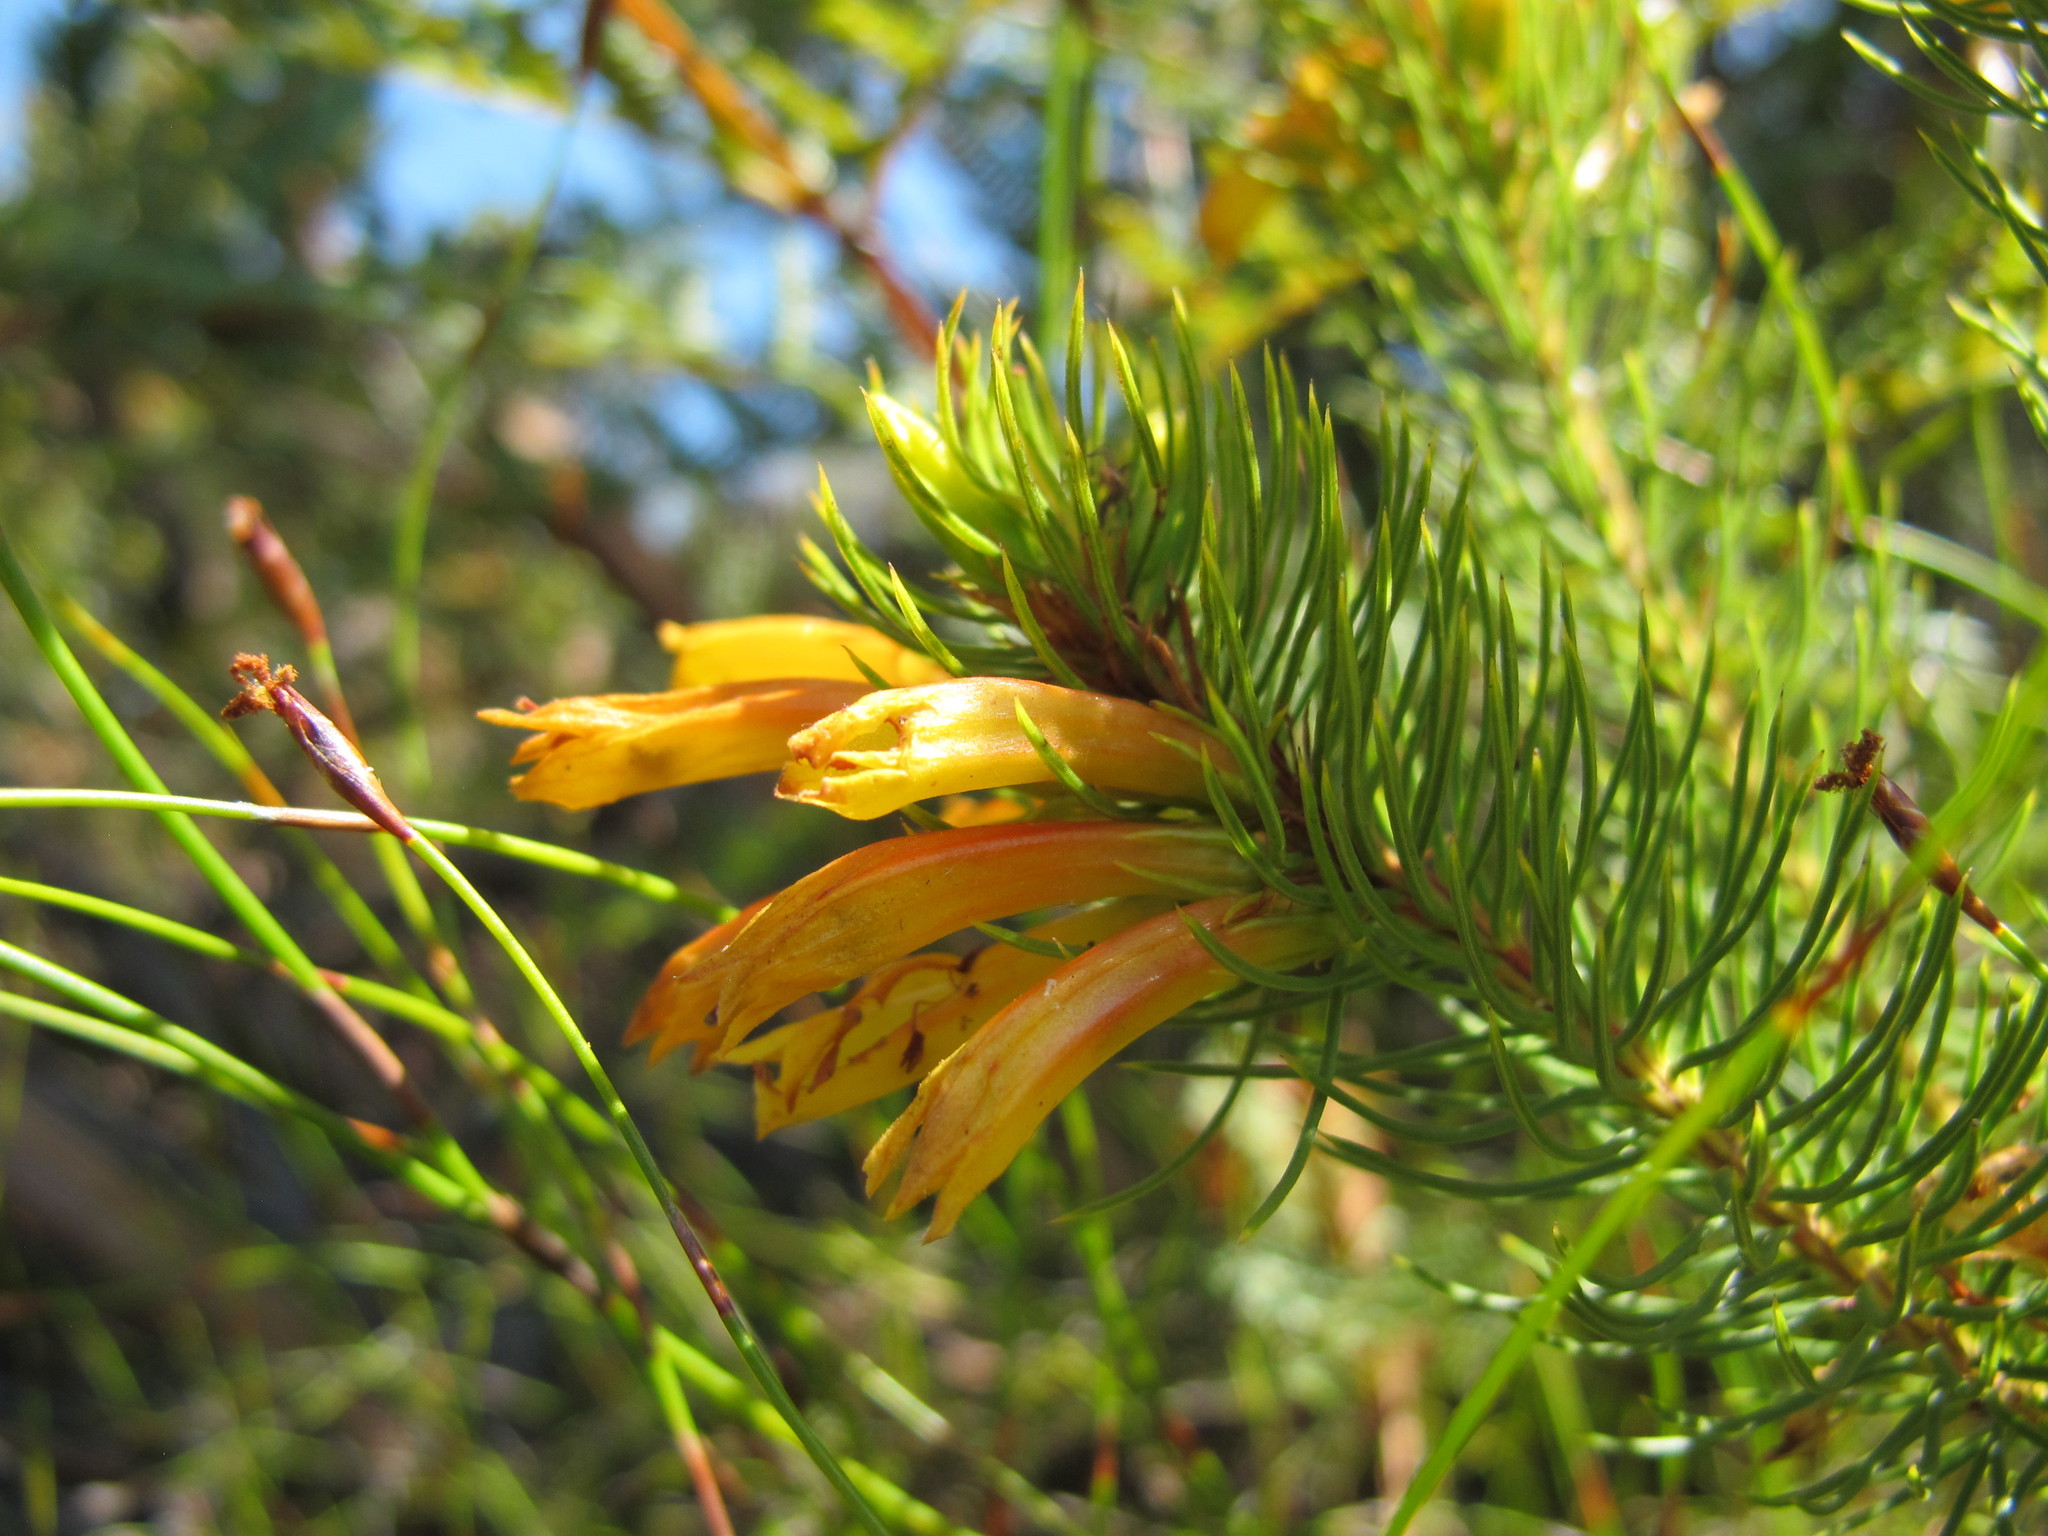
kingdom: Plantae
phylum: Tracheophyta
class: Magnoliopsida
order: Ericales
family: Ericaceae
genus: Erica
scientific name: Erica grandiflora
